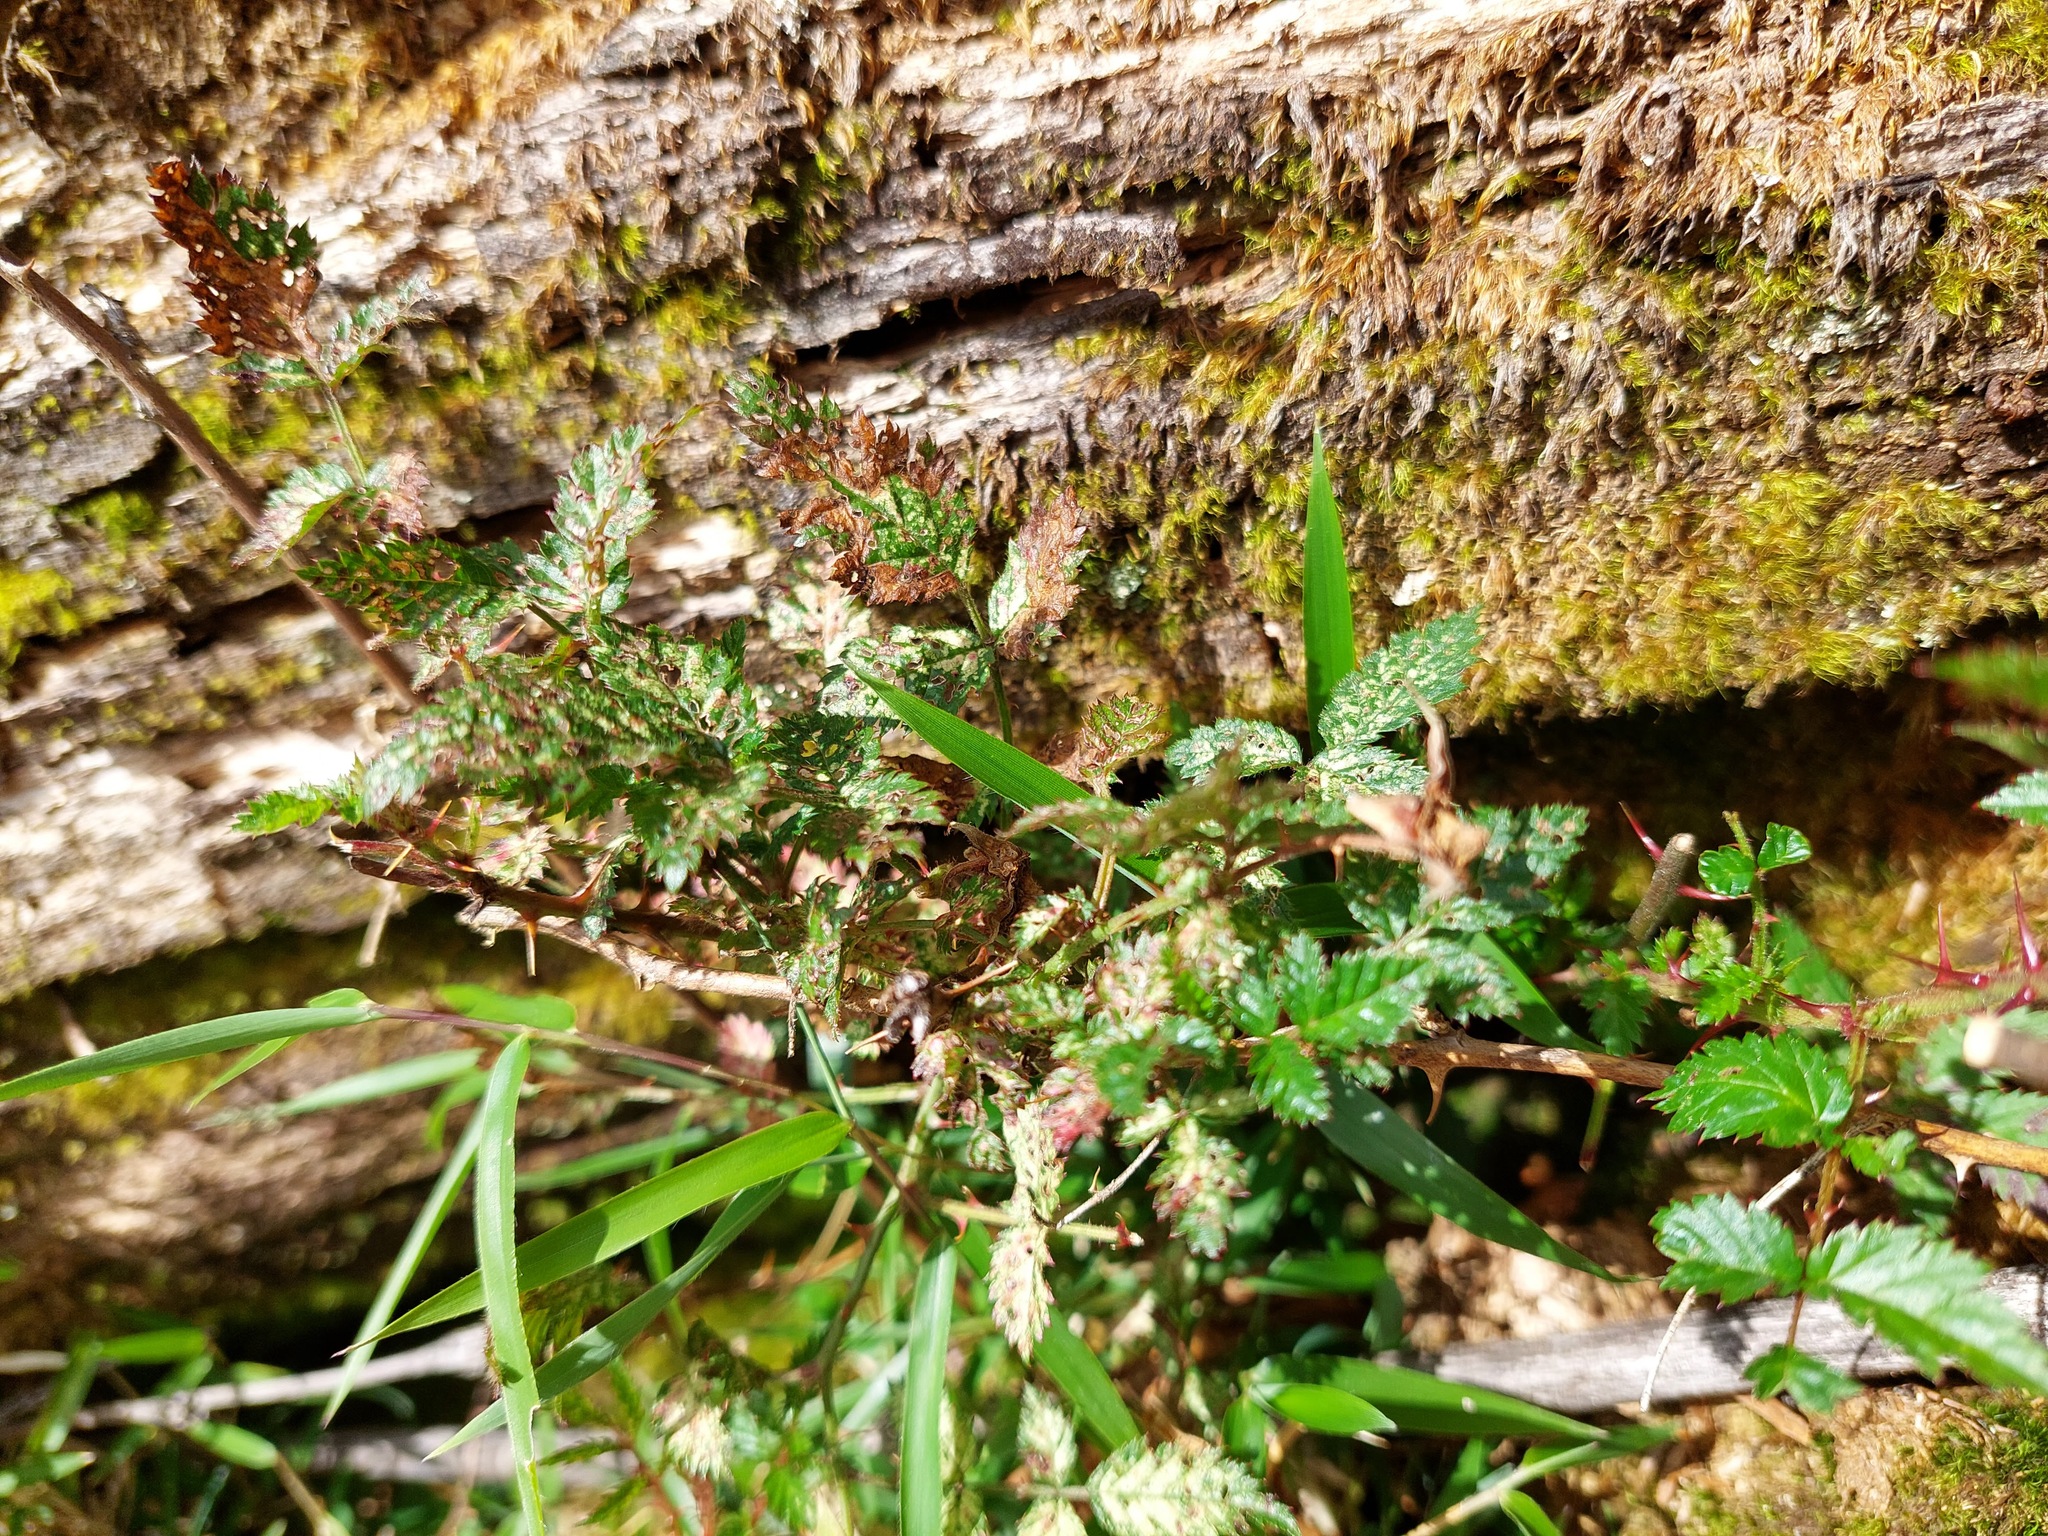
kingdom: Plantae
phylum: Tracheophyta
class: Magnoliopsida
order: Rosales
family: Rosaceae
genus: Rubus
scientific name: Rubus croceacanthus
